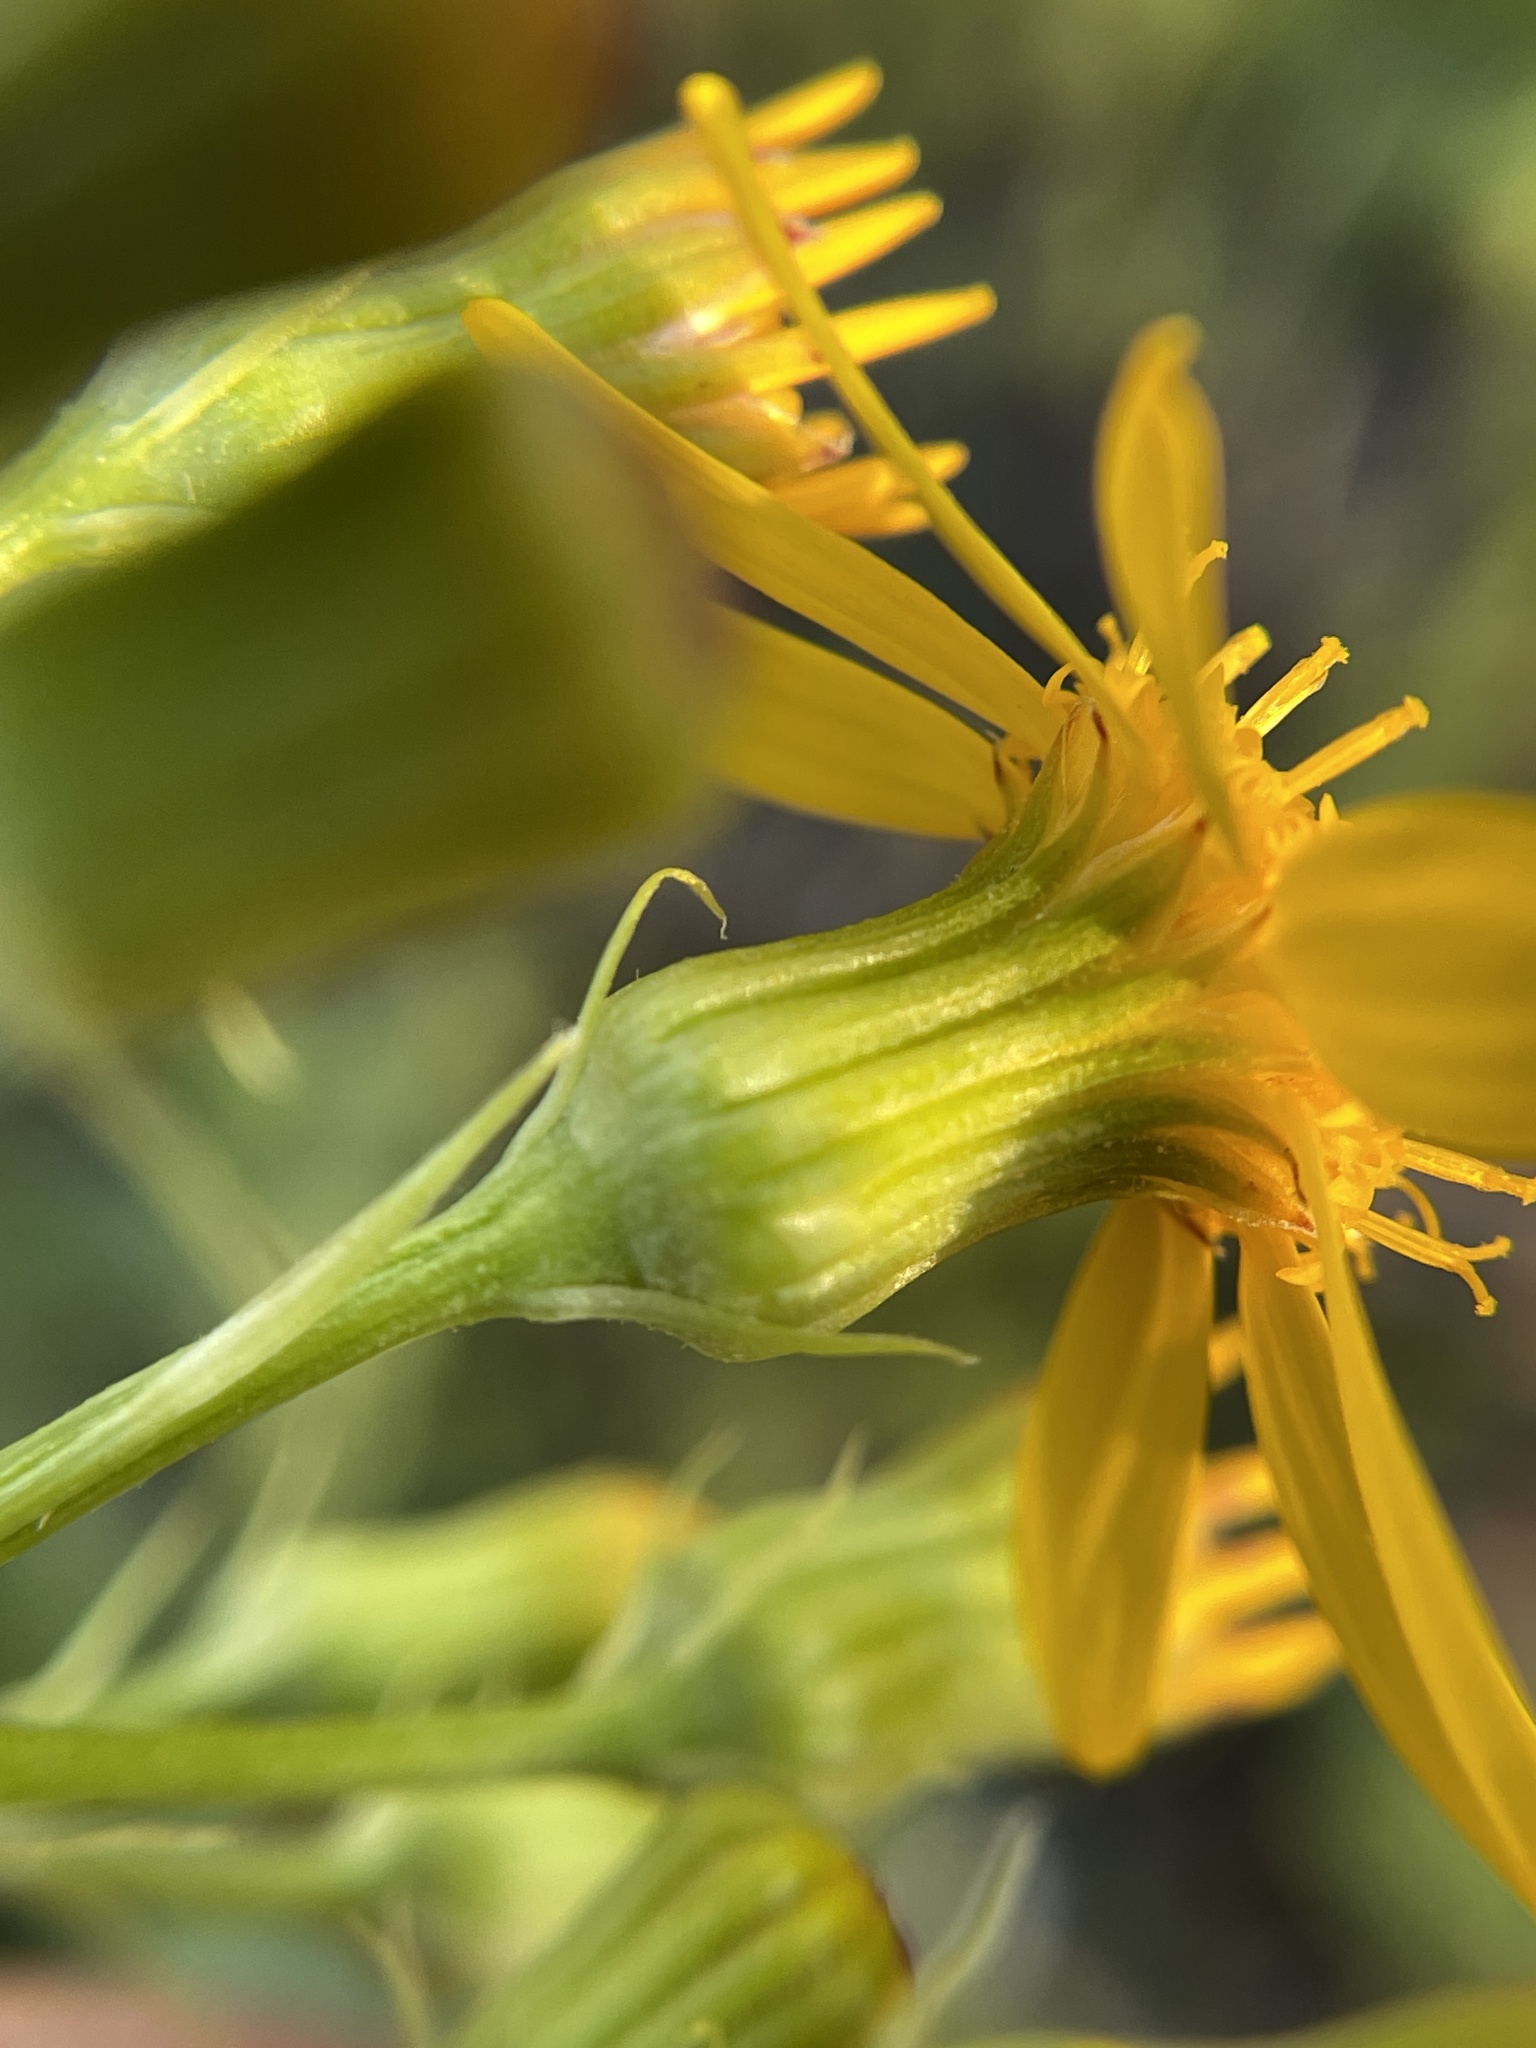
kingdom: Plantae
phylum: Tracheophyta
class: Magnoliopsida
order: Asterales
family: Asteraceae
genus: Senecio
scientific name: Senecio ampullaceus
